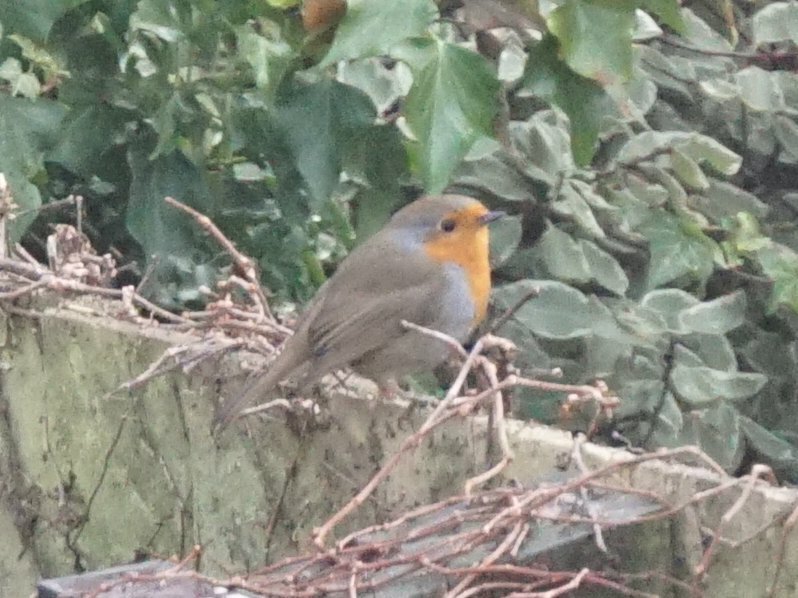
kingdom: Animalia
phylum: Chordata
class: Aves
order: Passeriformes
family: Muscicapidae
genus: Erithacus
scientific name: Erithacus rubecula
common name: European robin
